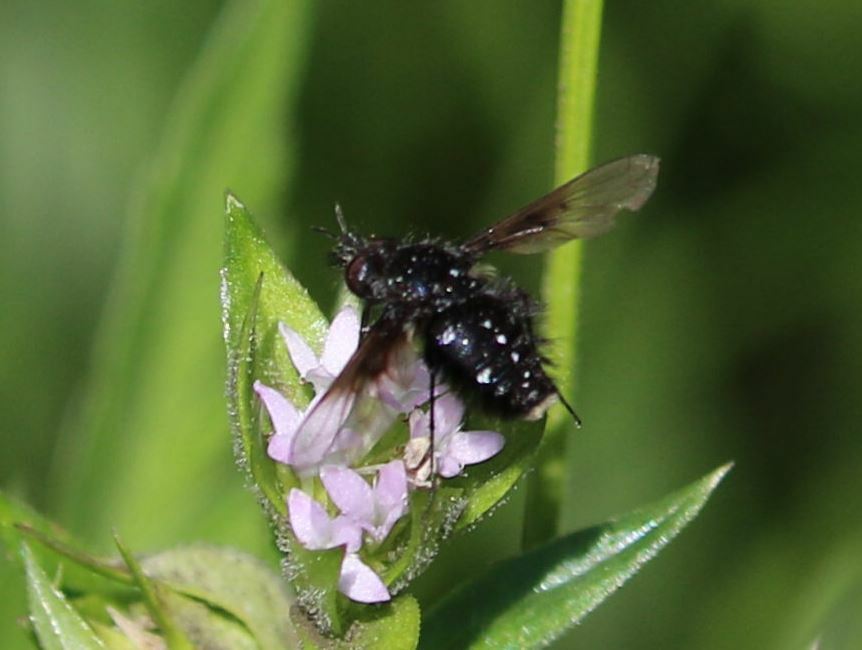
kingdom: Animalia
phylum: Arthropoda
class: Insecta
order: Diptera
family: Bombyliidae
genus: Bombylella
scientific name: Bombylella atra
